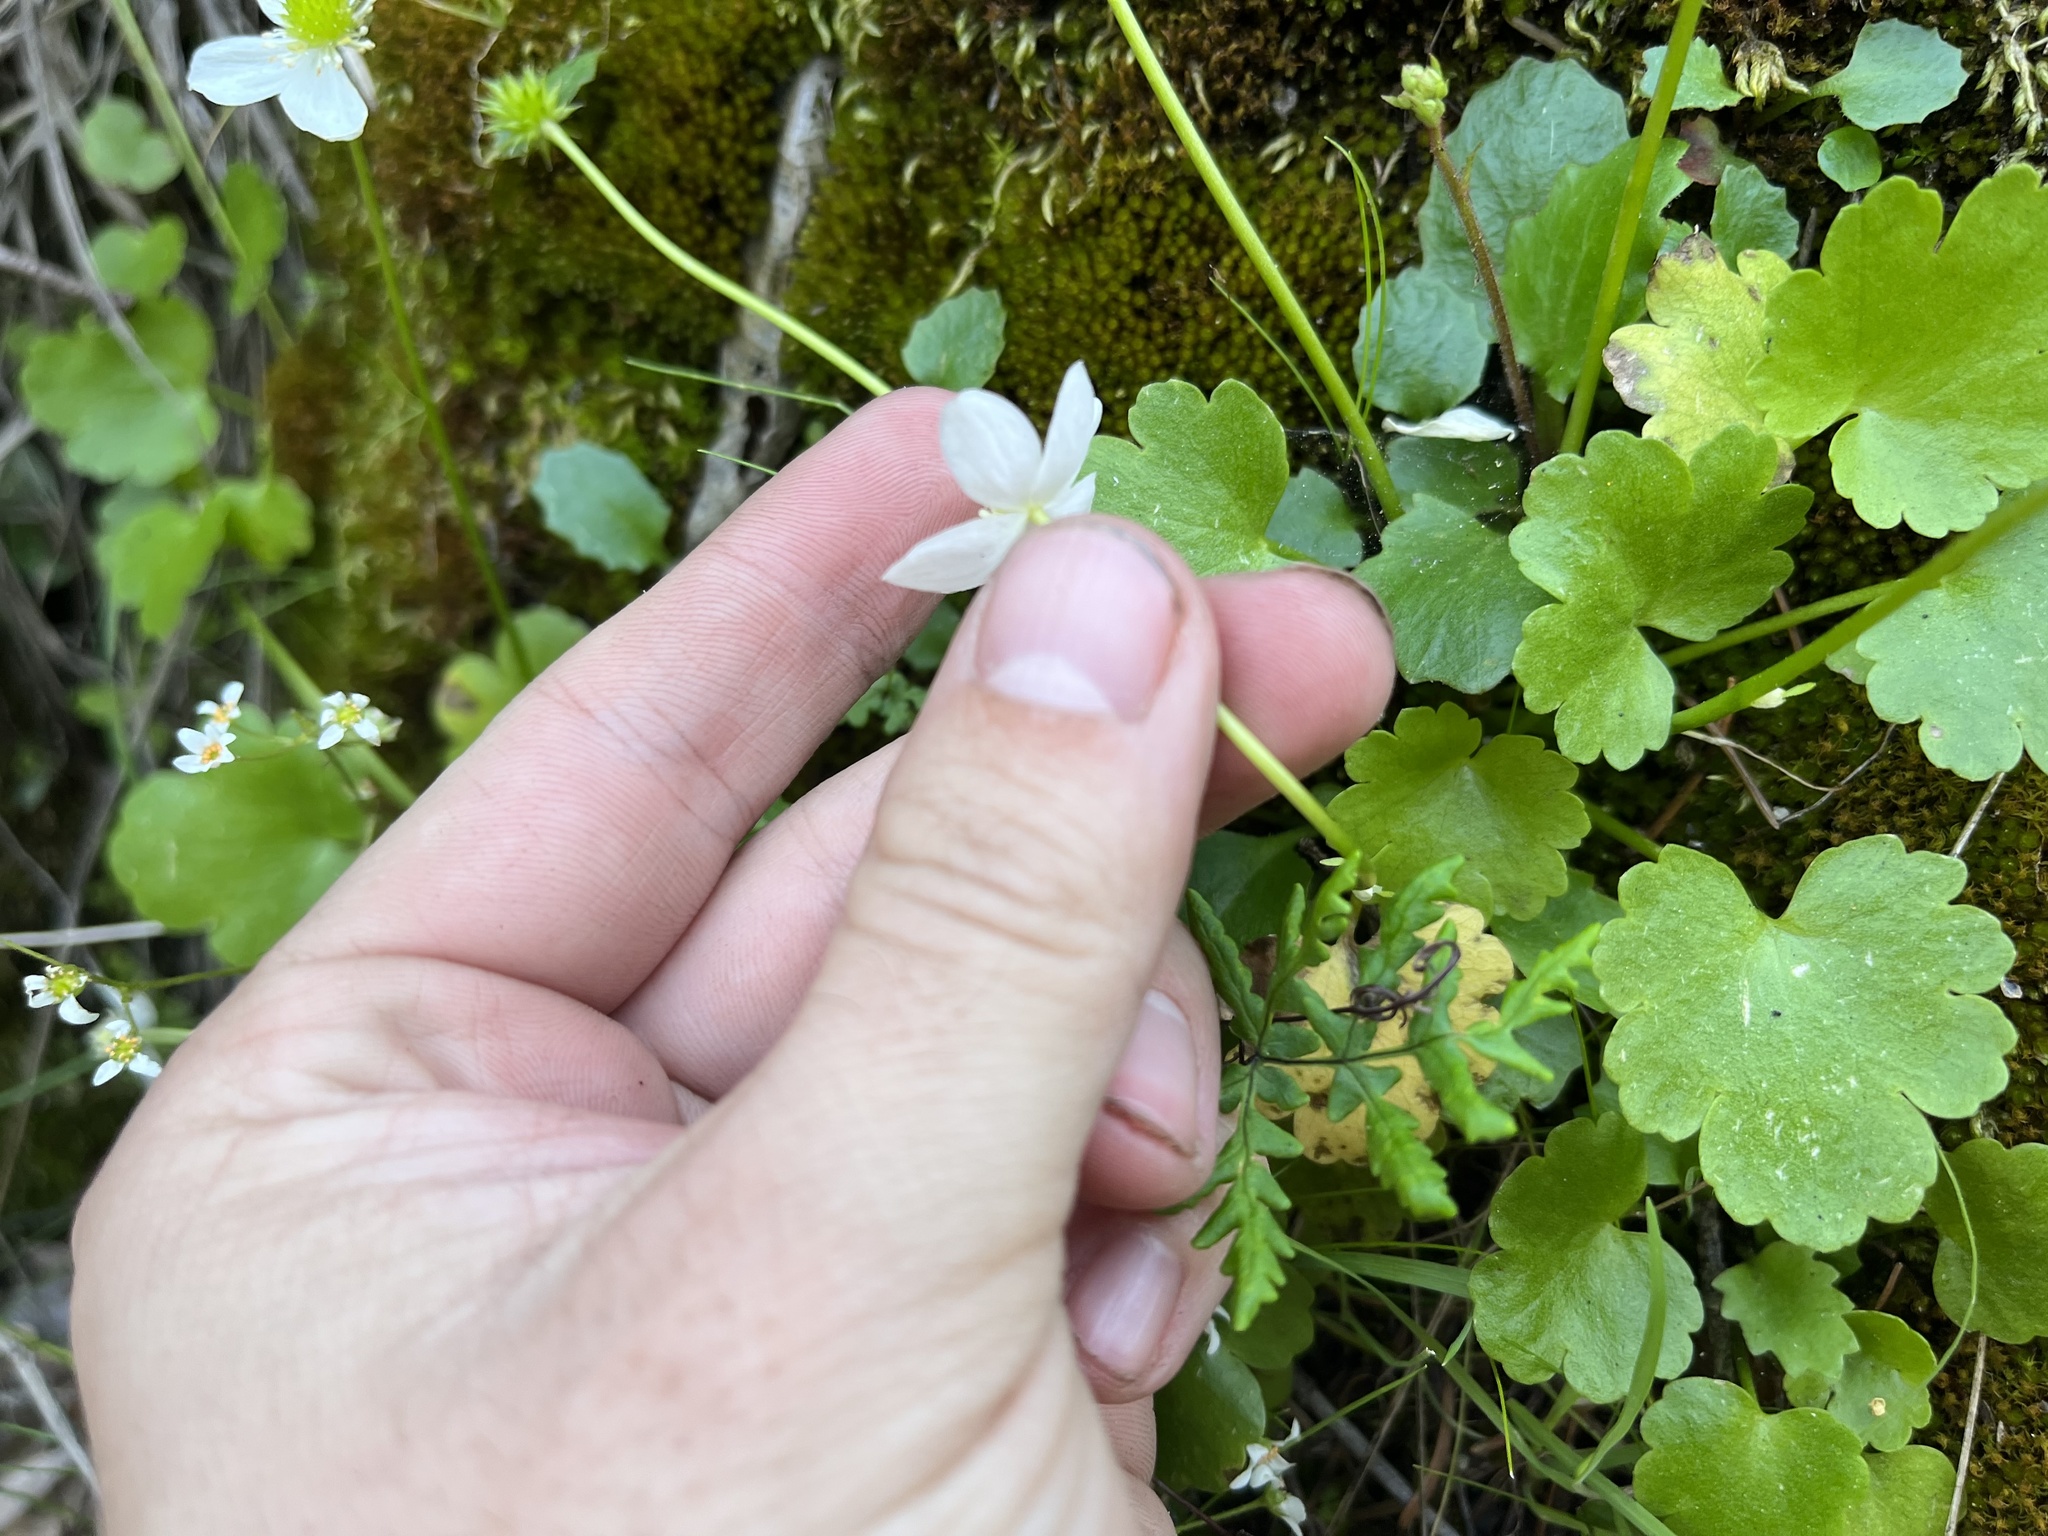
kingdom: Plantae
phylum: Tracheophyta
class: Magnoliopsida
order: Ranunculales
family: Ranunculaceae
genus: Kumlienia
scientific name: Kumlienia hystricula
